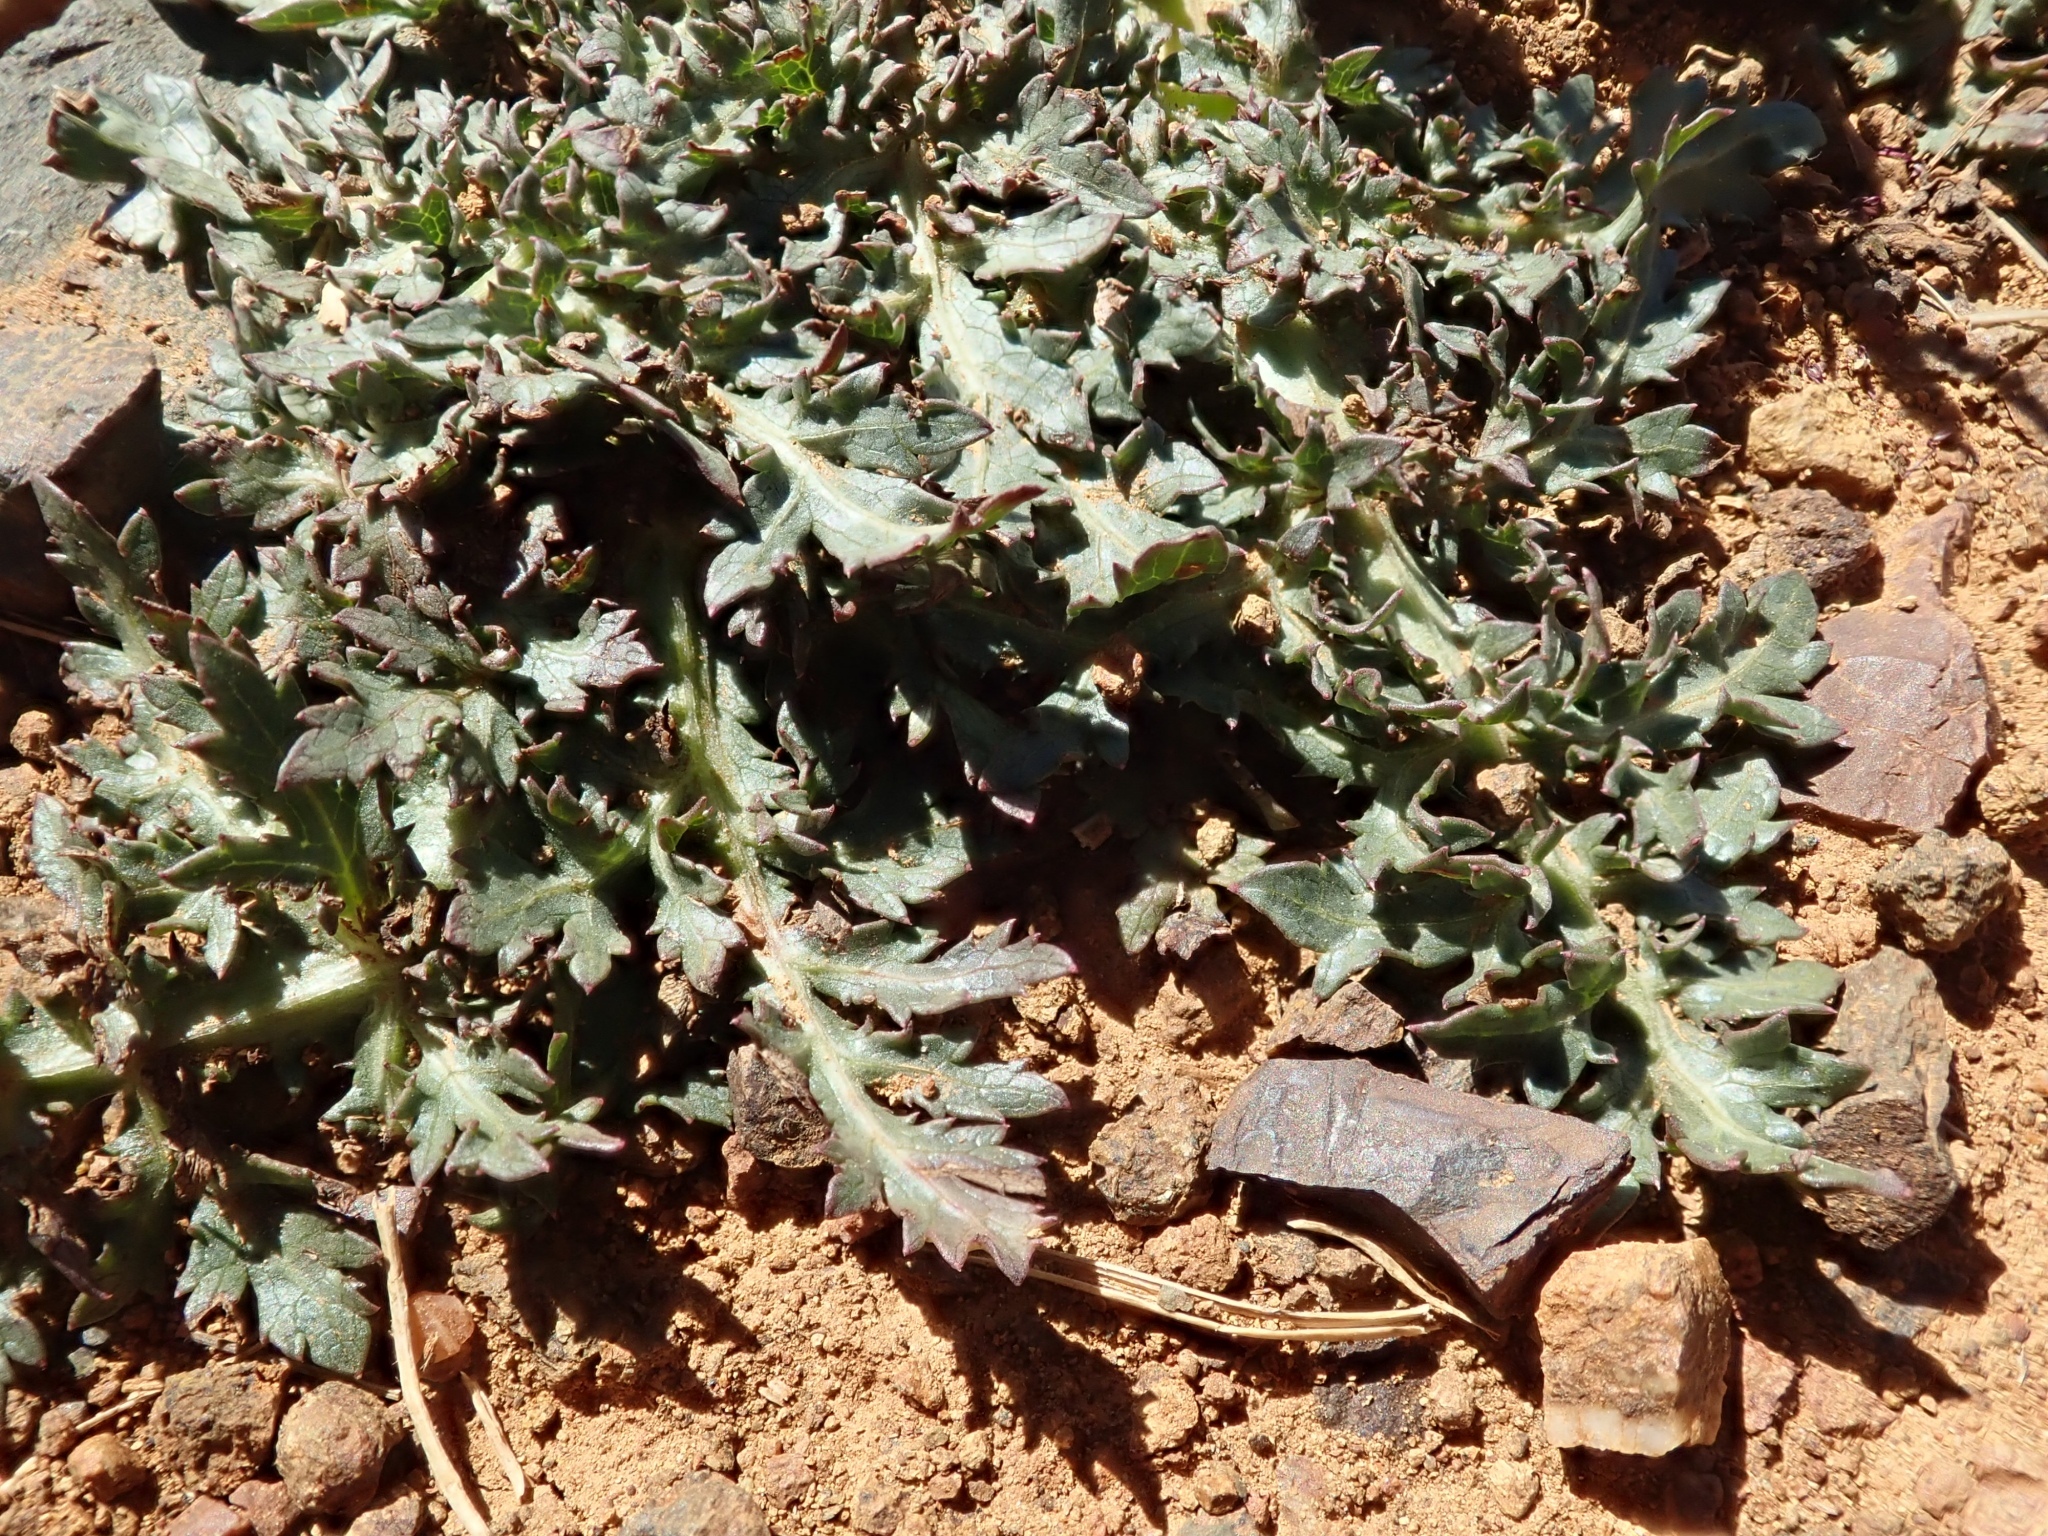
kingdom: Plantae
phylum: Tracheophyta
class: Magnoliopsida
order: Apiales
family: Apiaceae
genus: Sanicula
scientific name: Sanicula bipinnatifida
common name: Shoe-buttons
